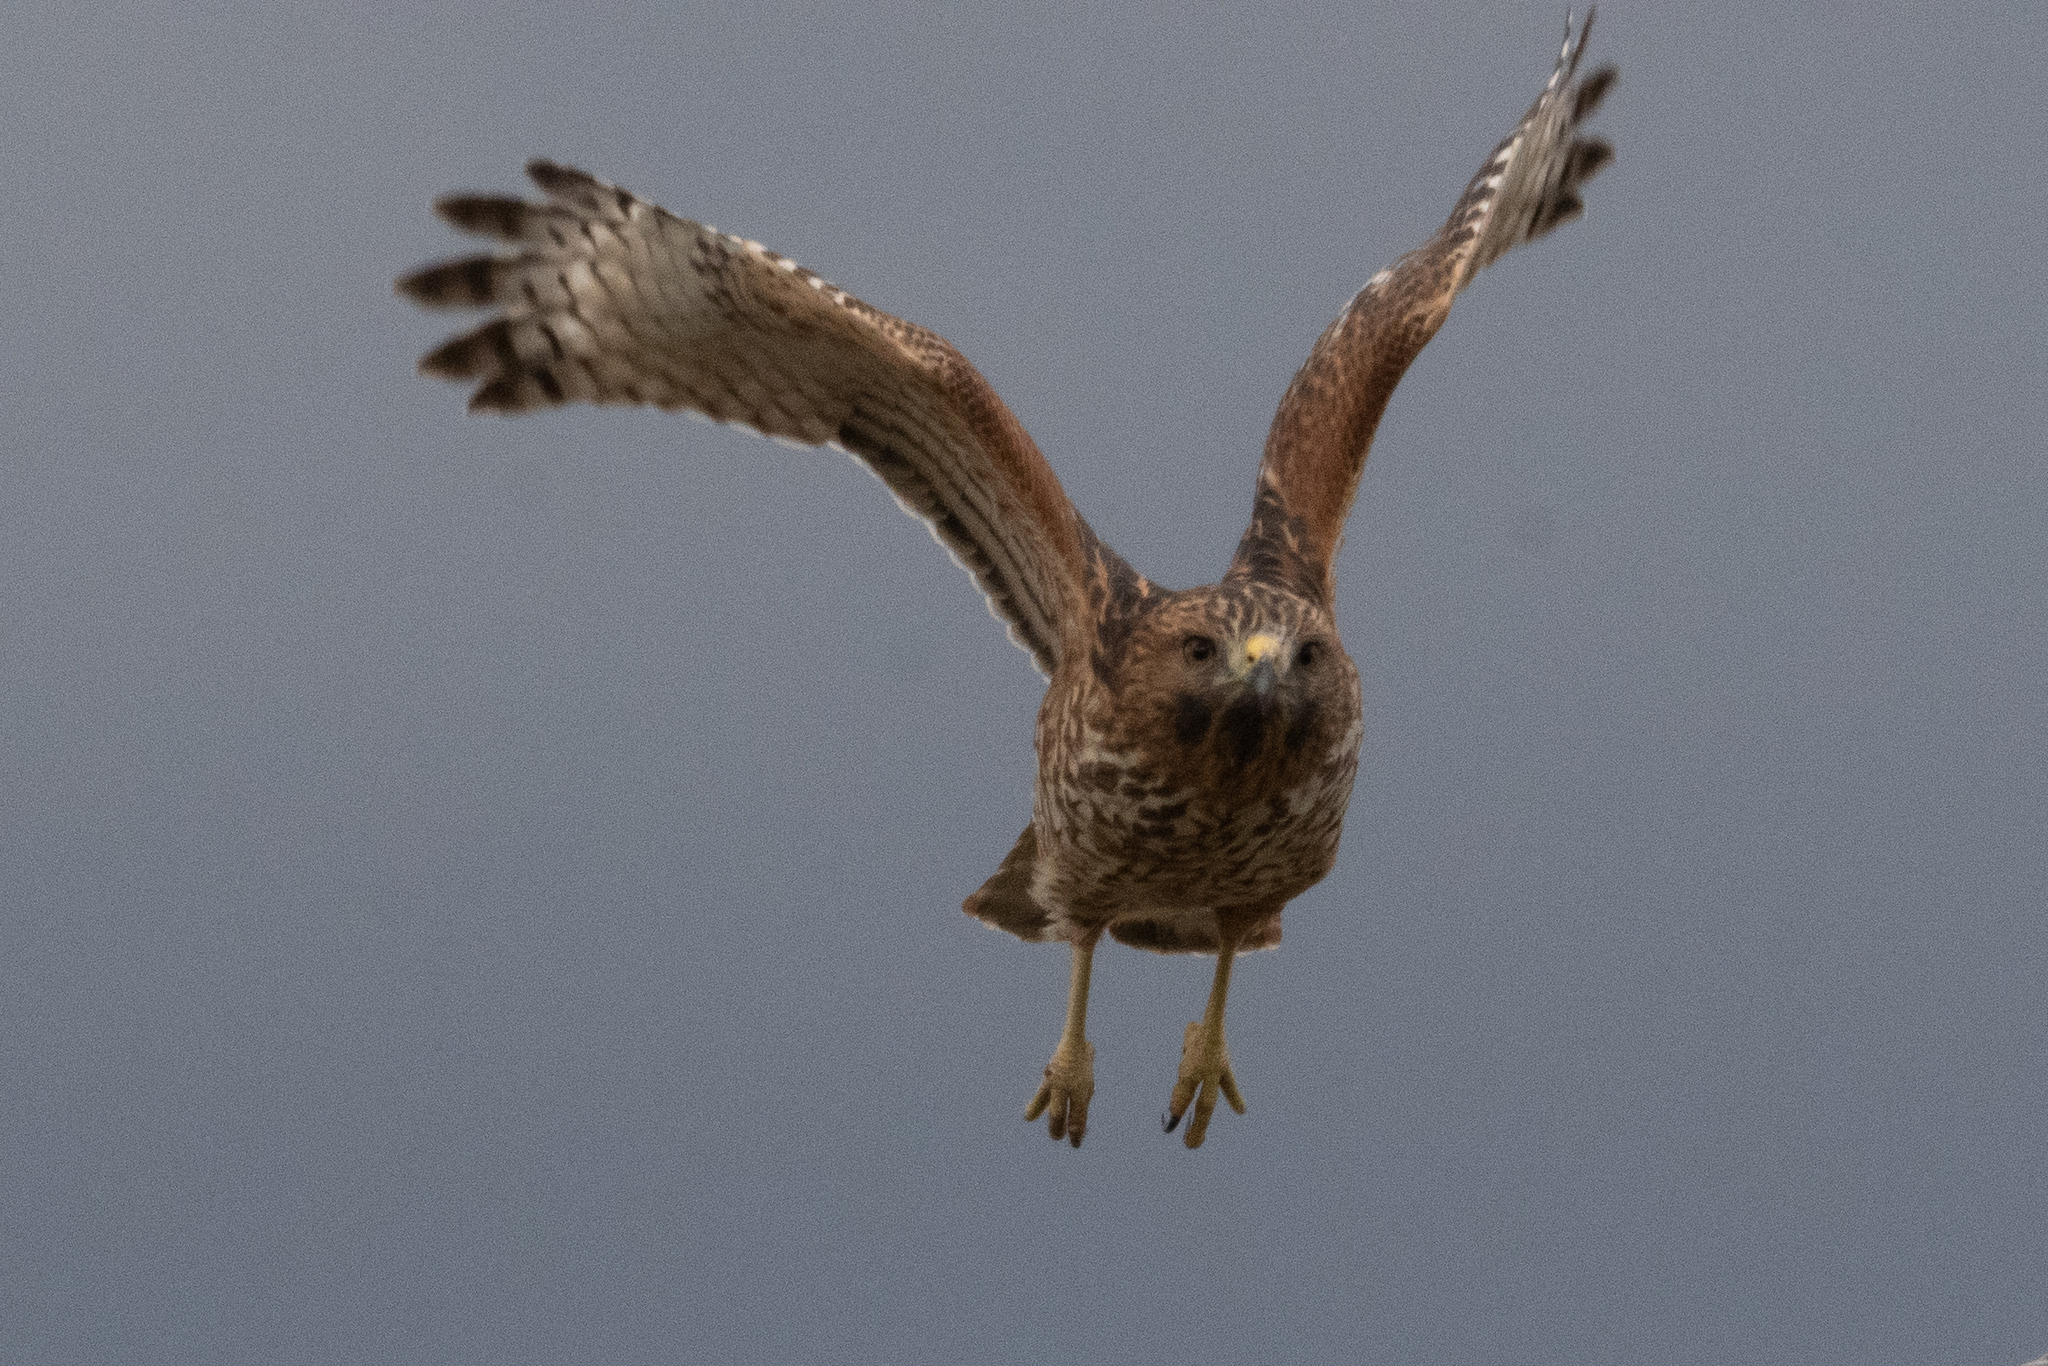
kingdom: Animalia
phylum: Chordata
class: Aves
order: Accipitriformes
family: Accipitridae
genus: Buteo
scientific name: Buteo lineatus
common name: Red-shouldered hawk
